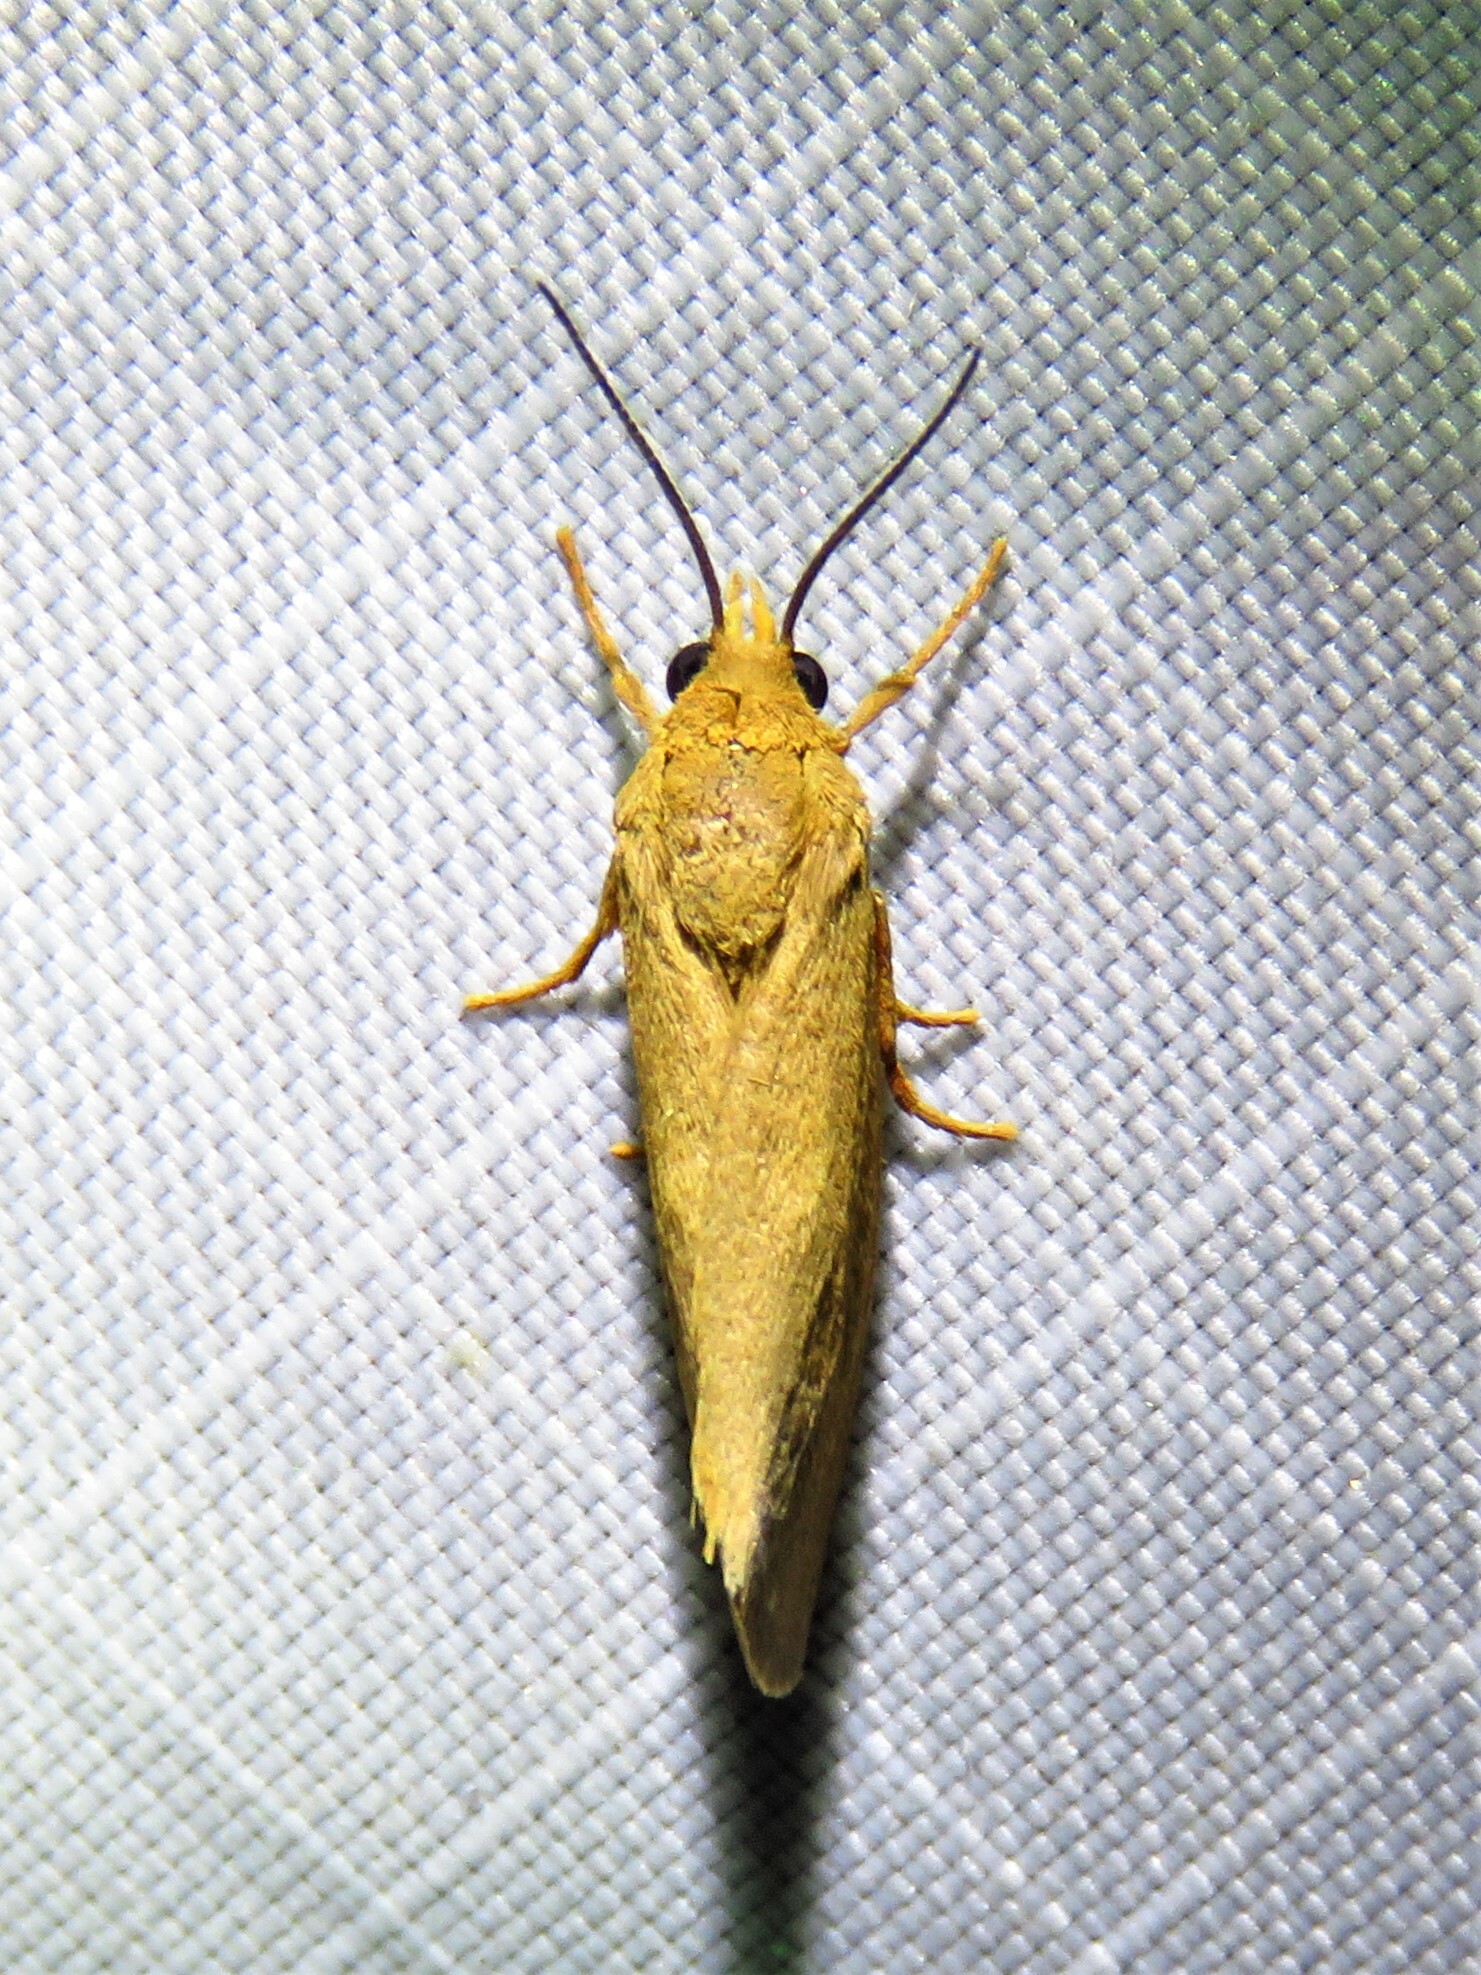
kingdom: Animalia
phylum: Arthropoda
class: Insecta
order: Lepidoptera
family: Erebidae
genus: Virbia
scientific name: Virbia aurantiaca
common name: Orange virbia moth
